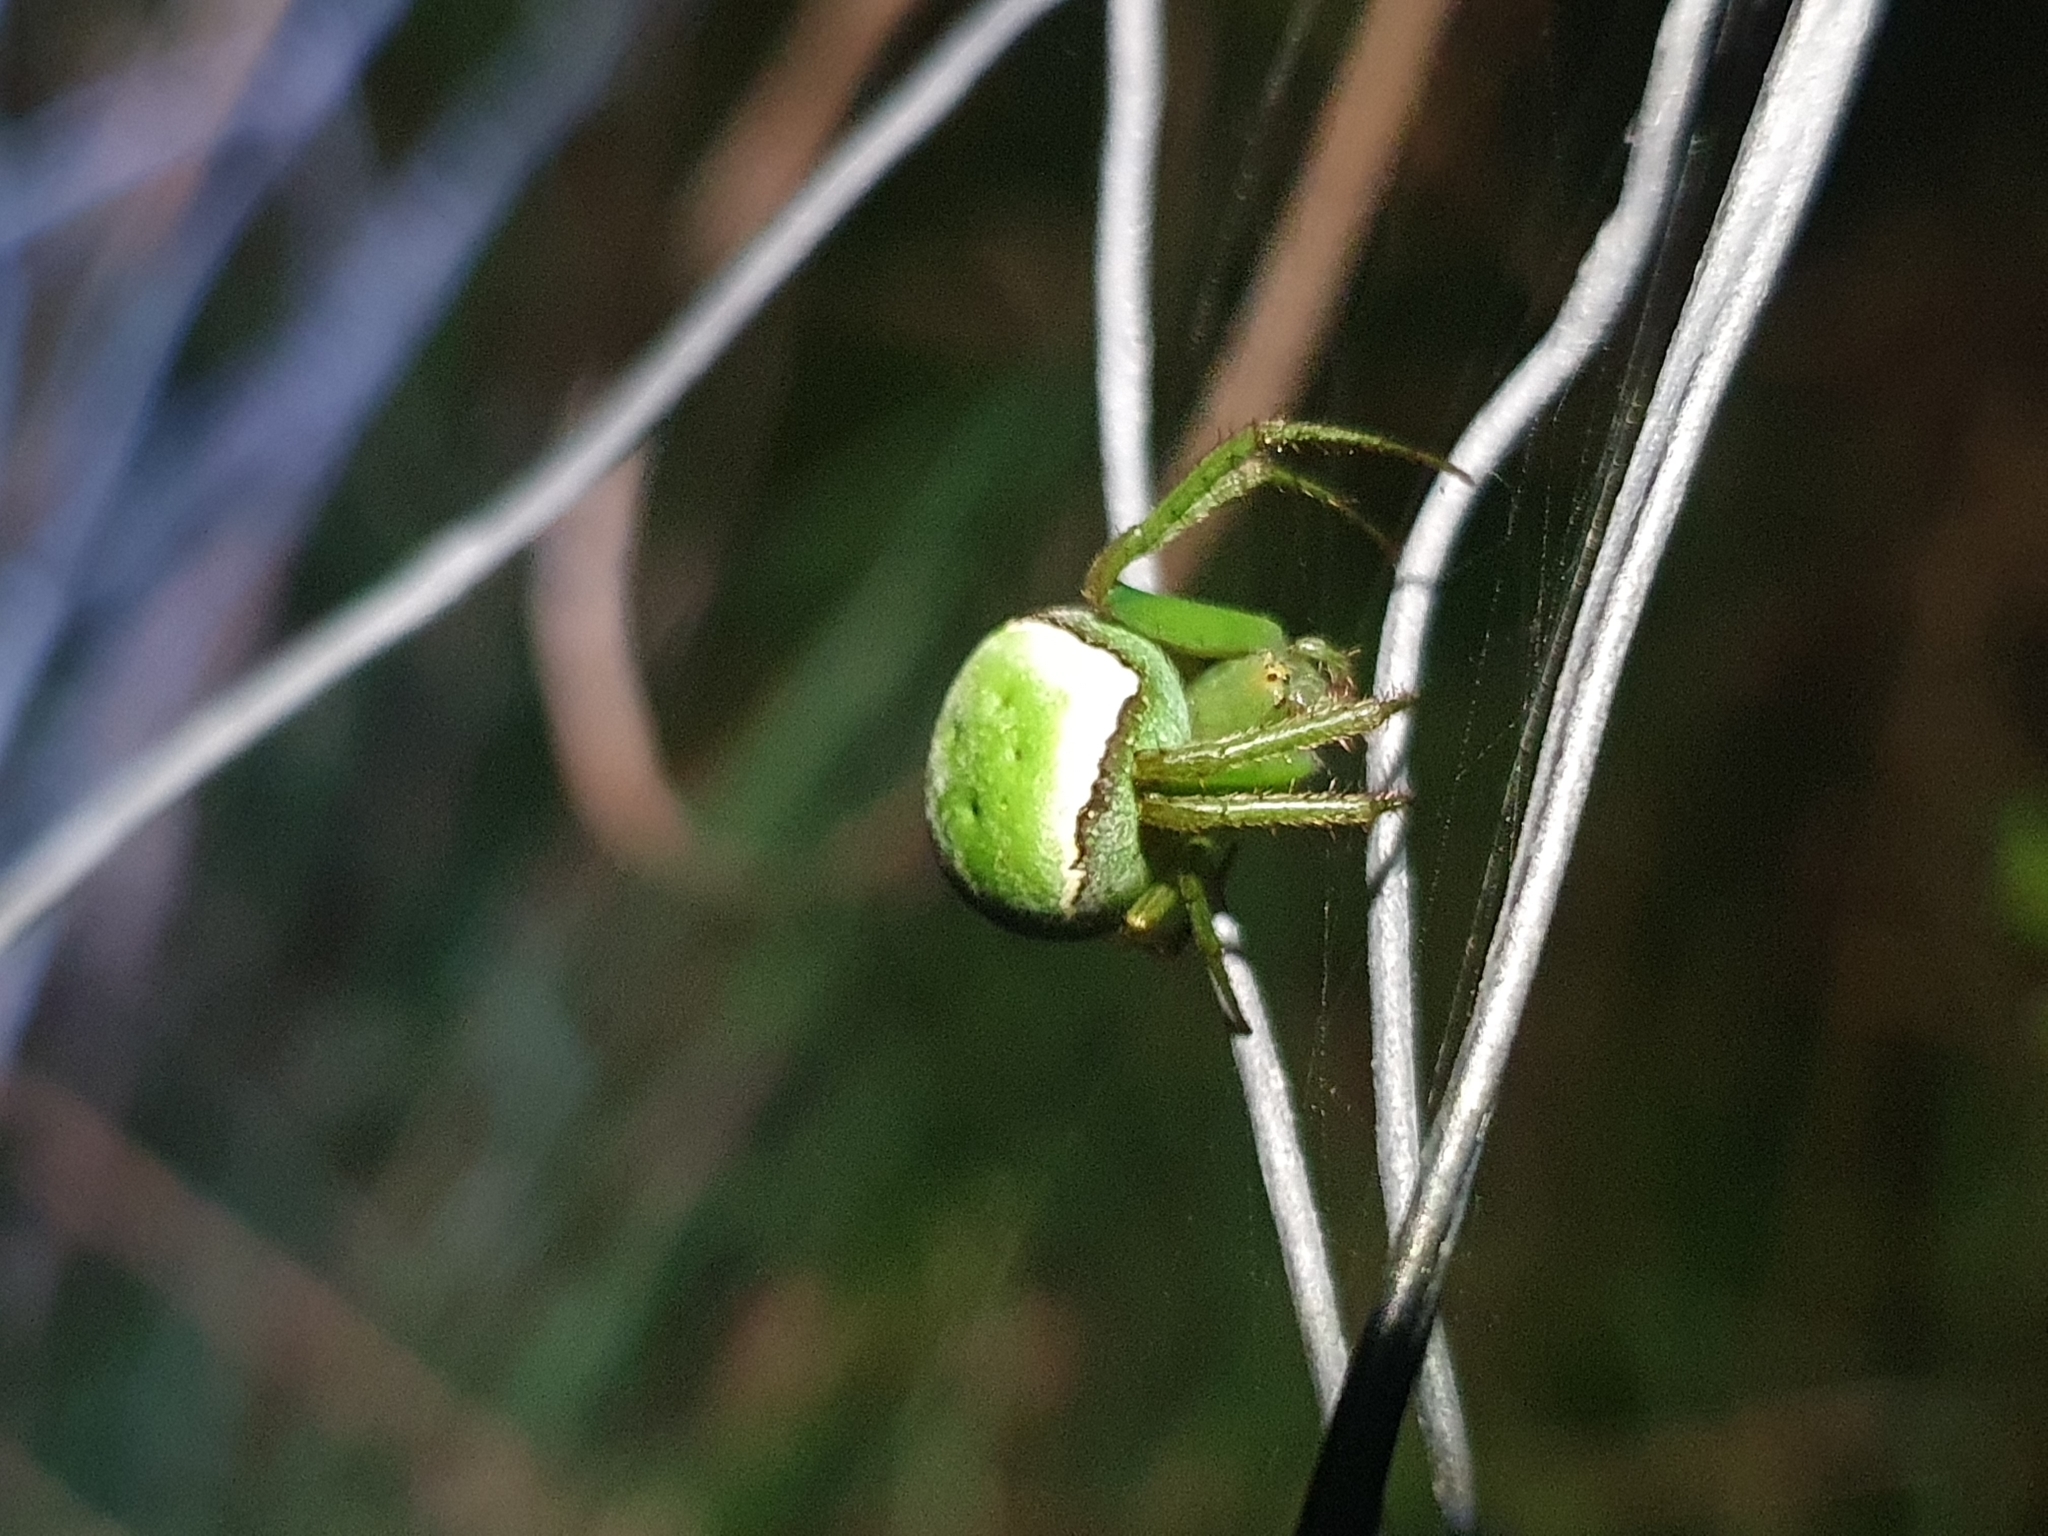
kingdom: Animalia
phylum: Arthropoda
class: Arachnida
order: Araneae
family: Araneidae
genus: Colaranea
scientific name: Colaranea viriditas
